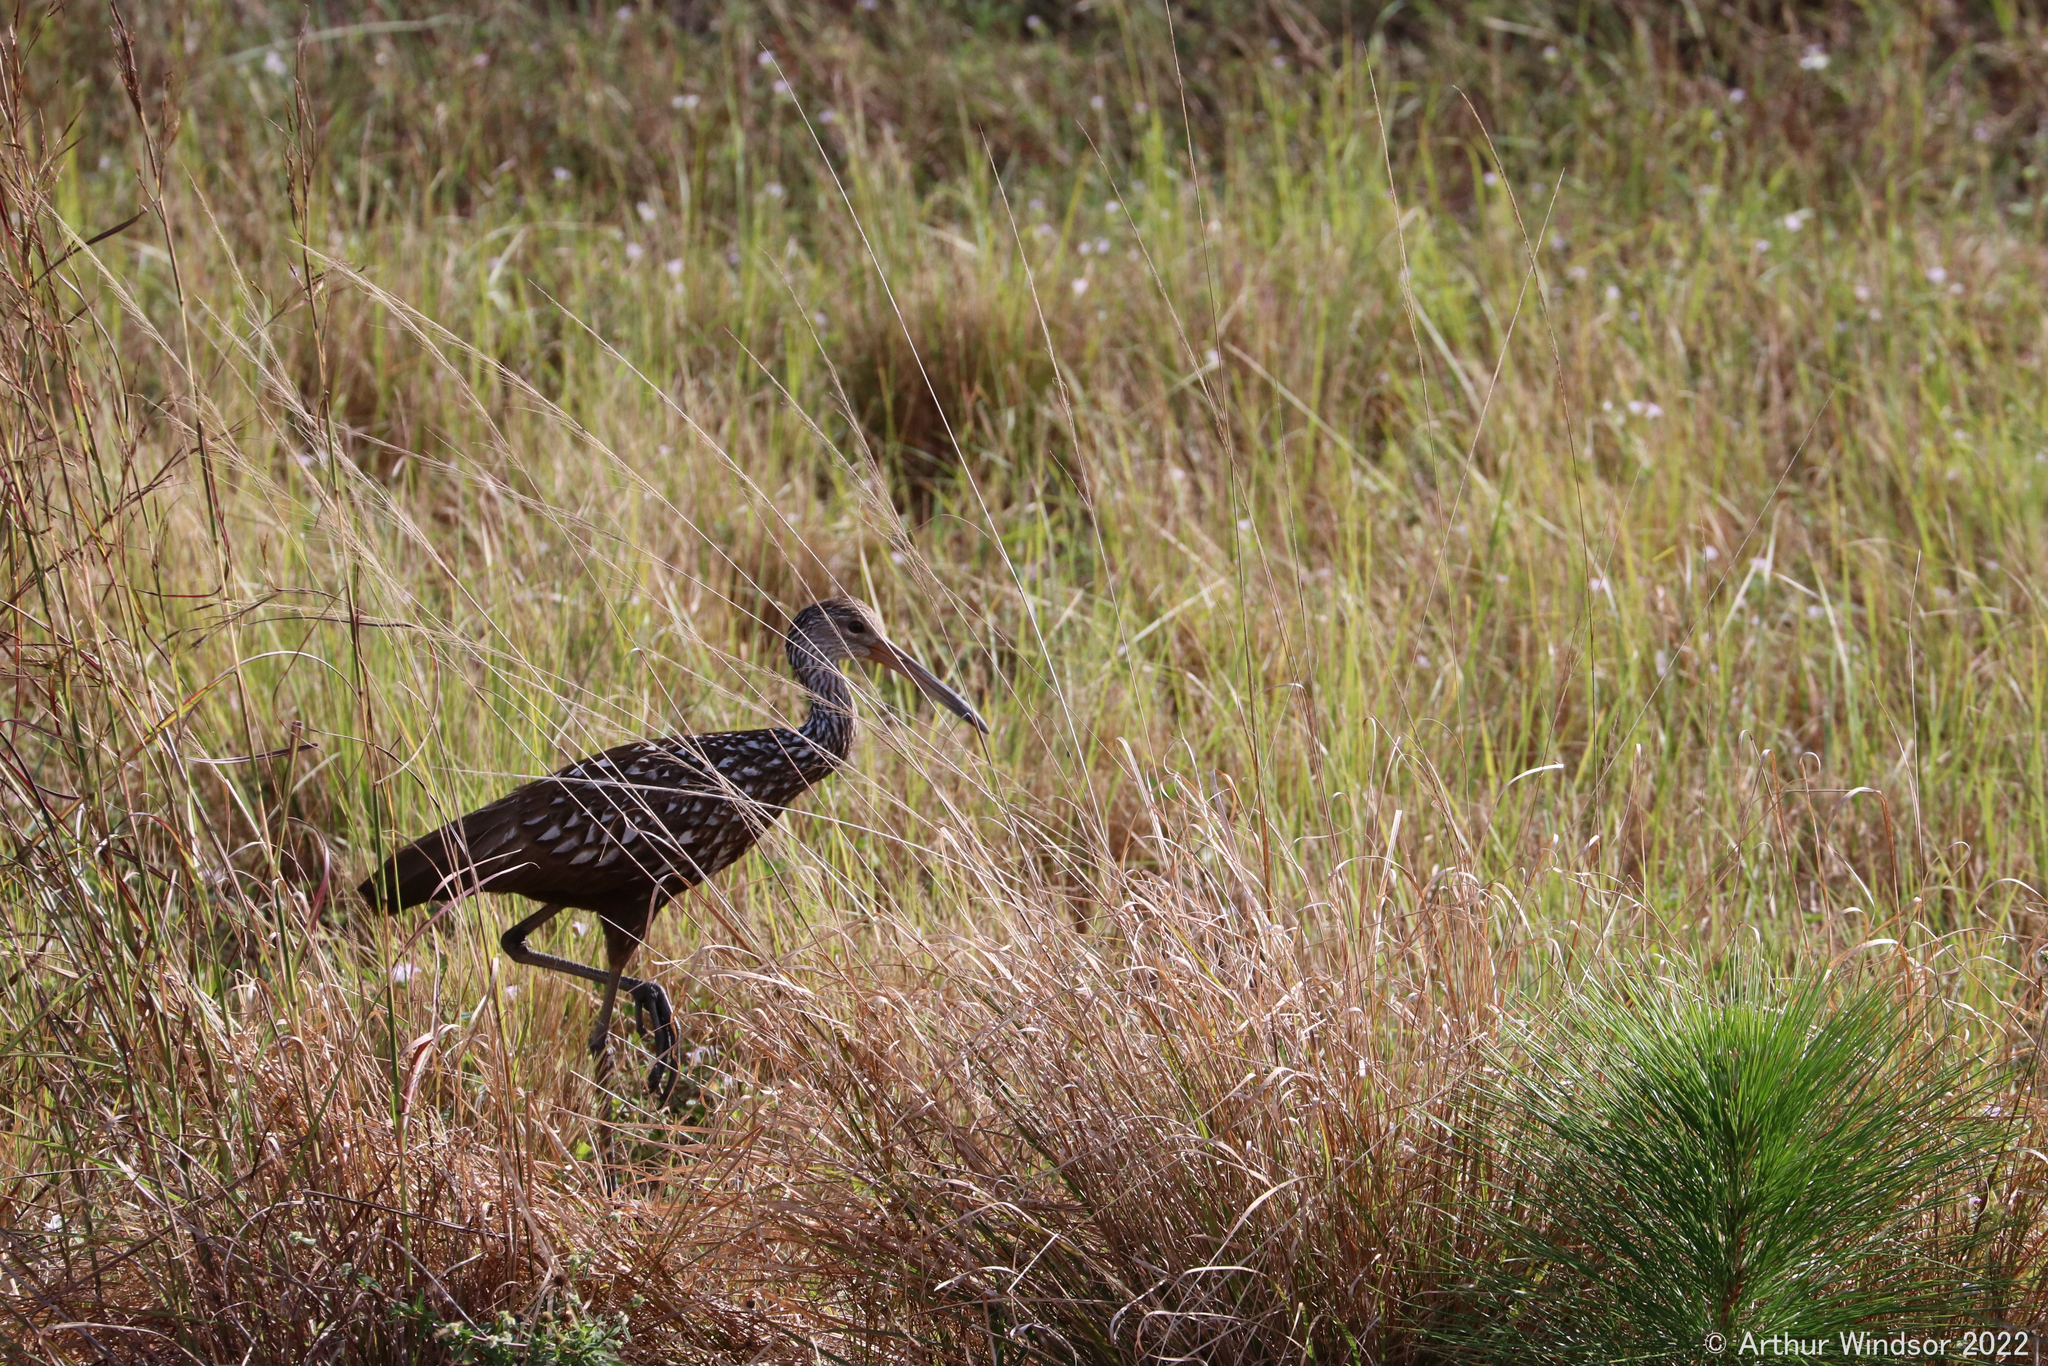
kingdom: Animalia
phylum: Chordata
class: Aves
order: Gruiformes
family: Aramidae
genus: Aramus
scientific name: Aramus guarauna
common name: Limpkin
